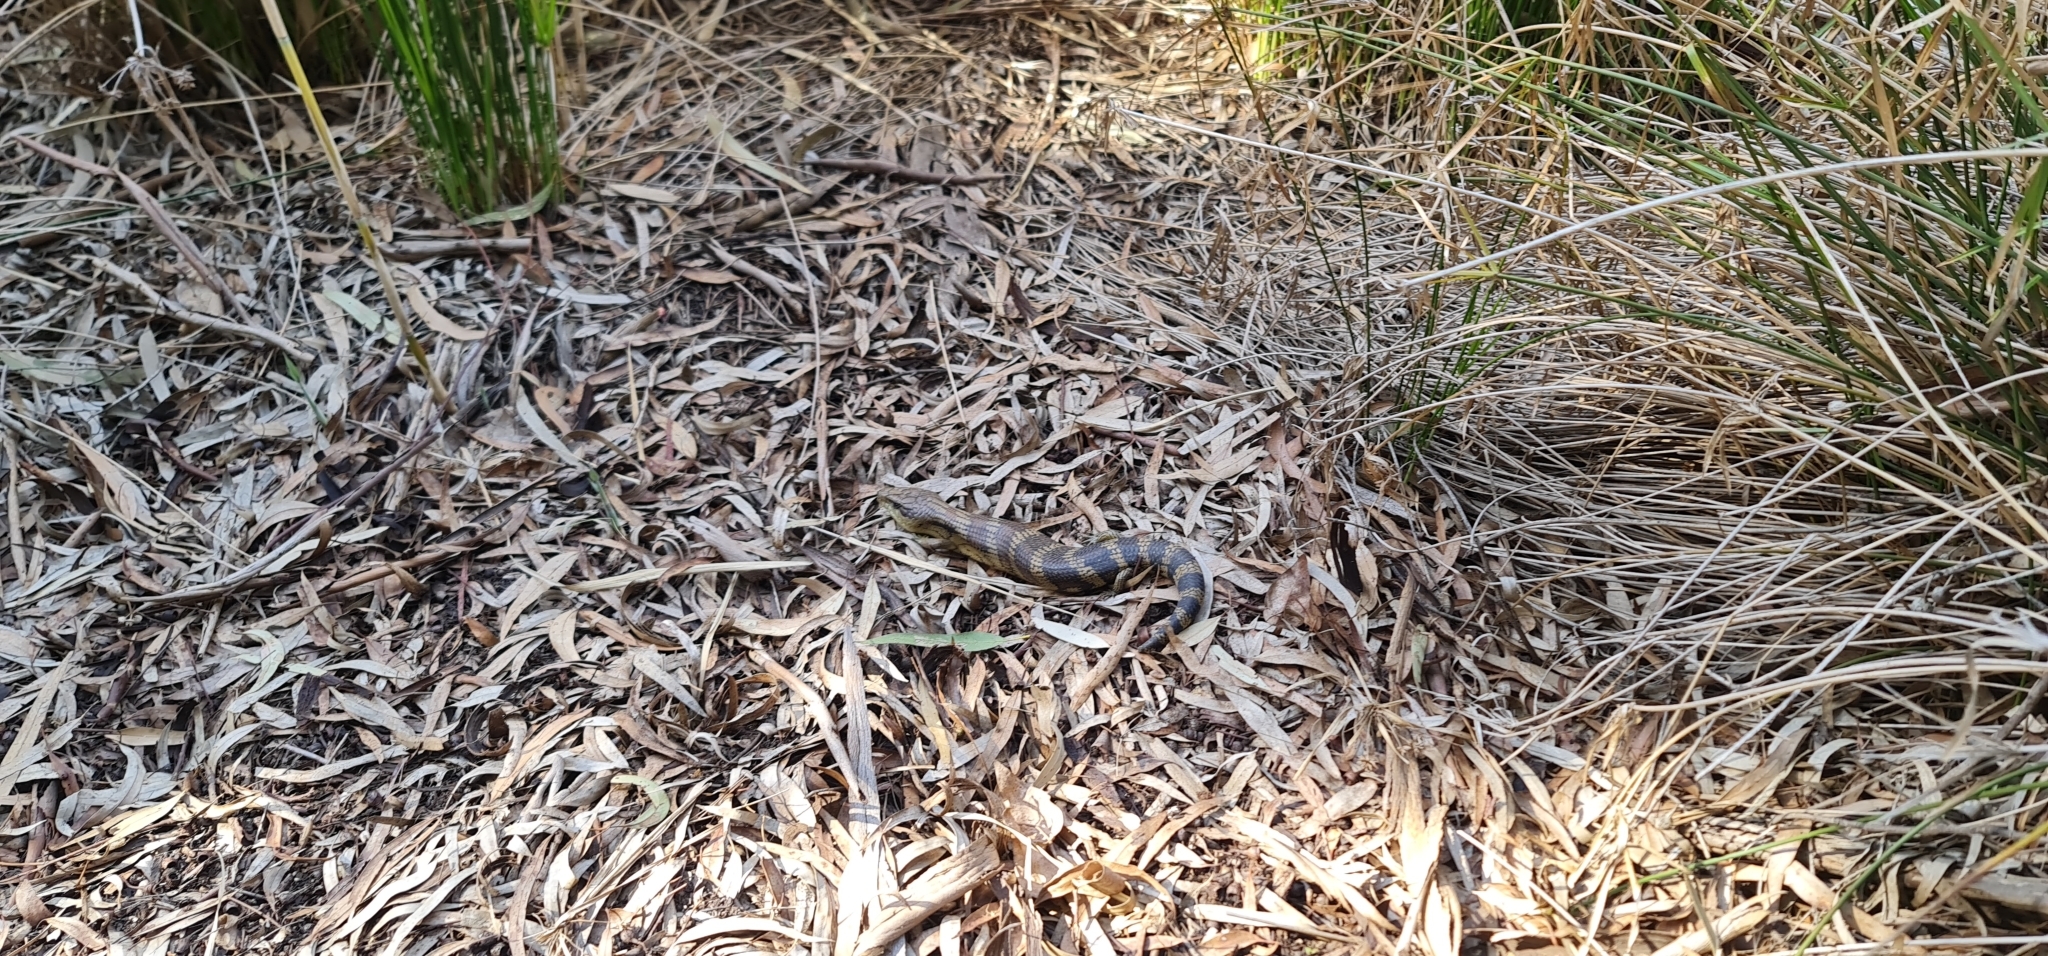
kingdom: Animalia
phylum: Chordata
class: Squamata
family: Scincidae
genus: Tiliqua
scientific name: Tiliqua scincoides
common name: Common bluetongue
